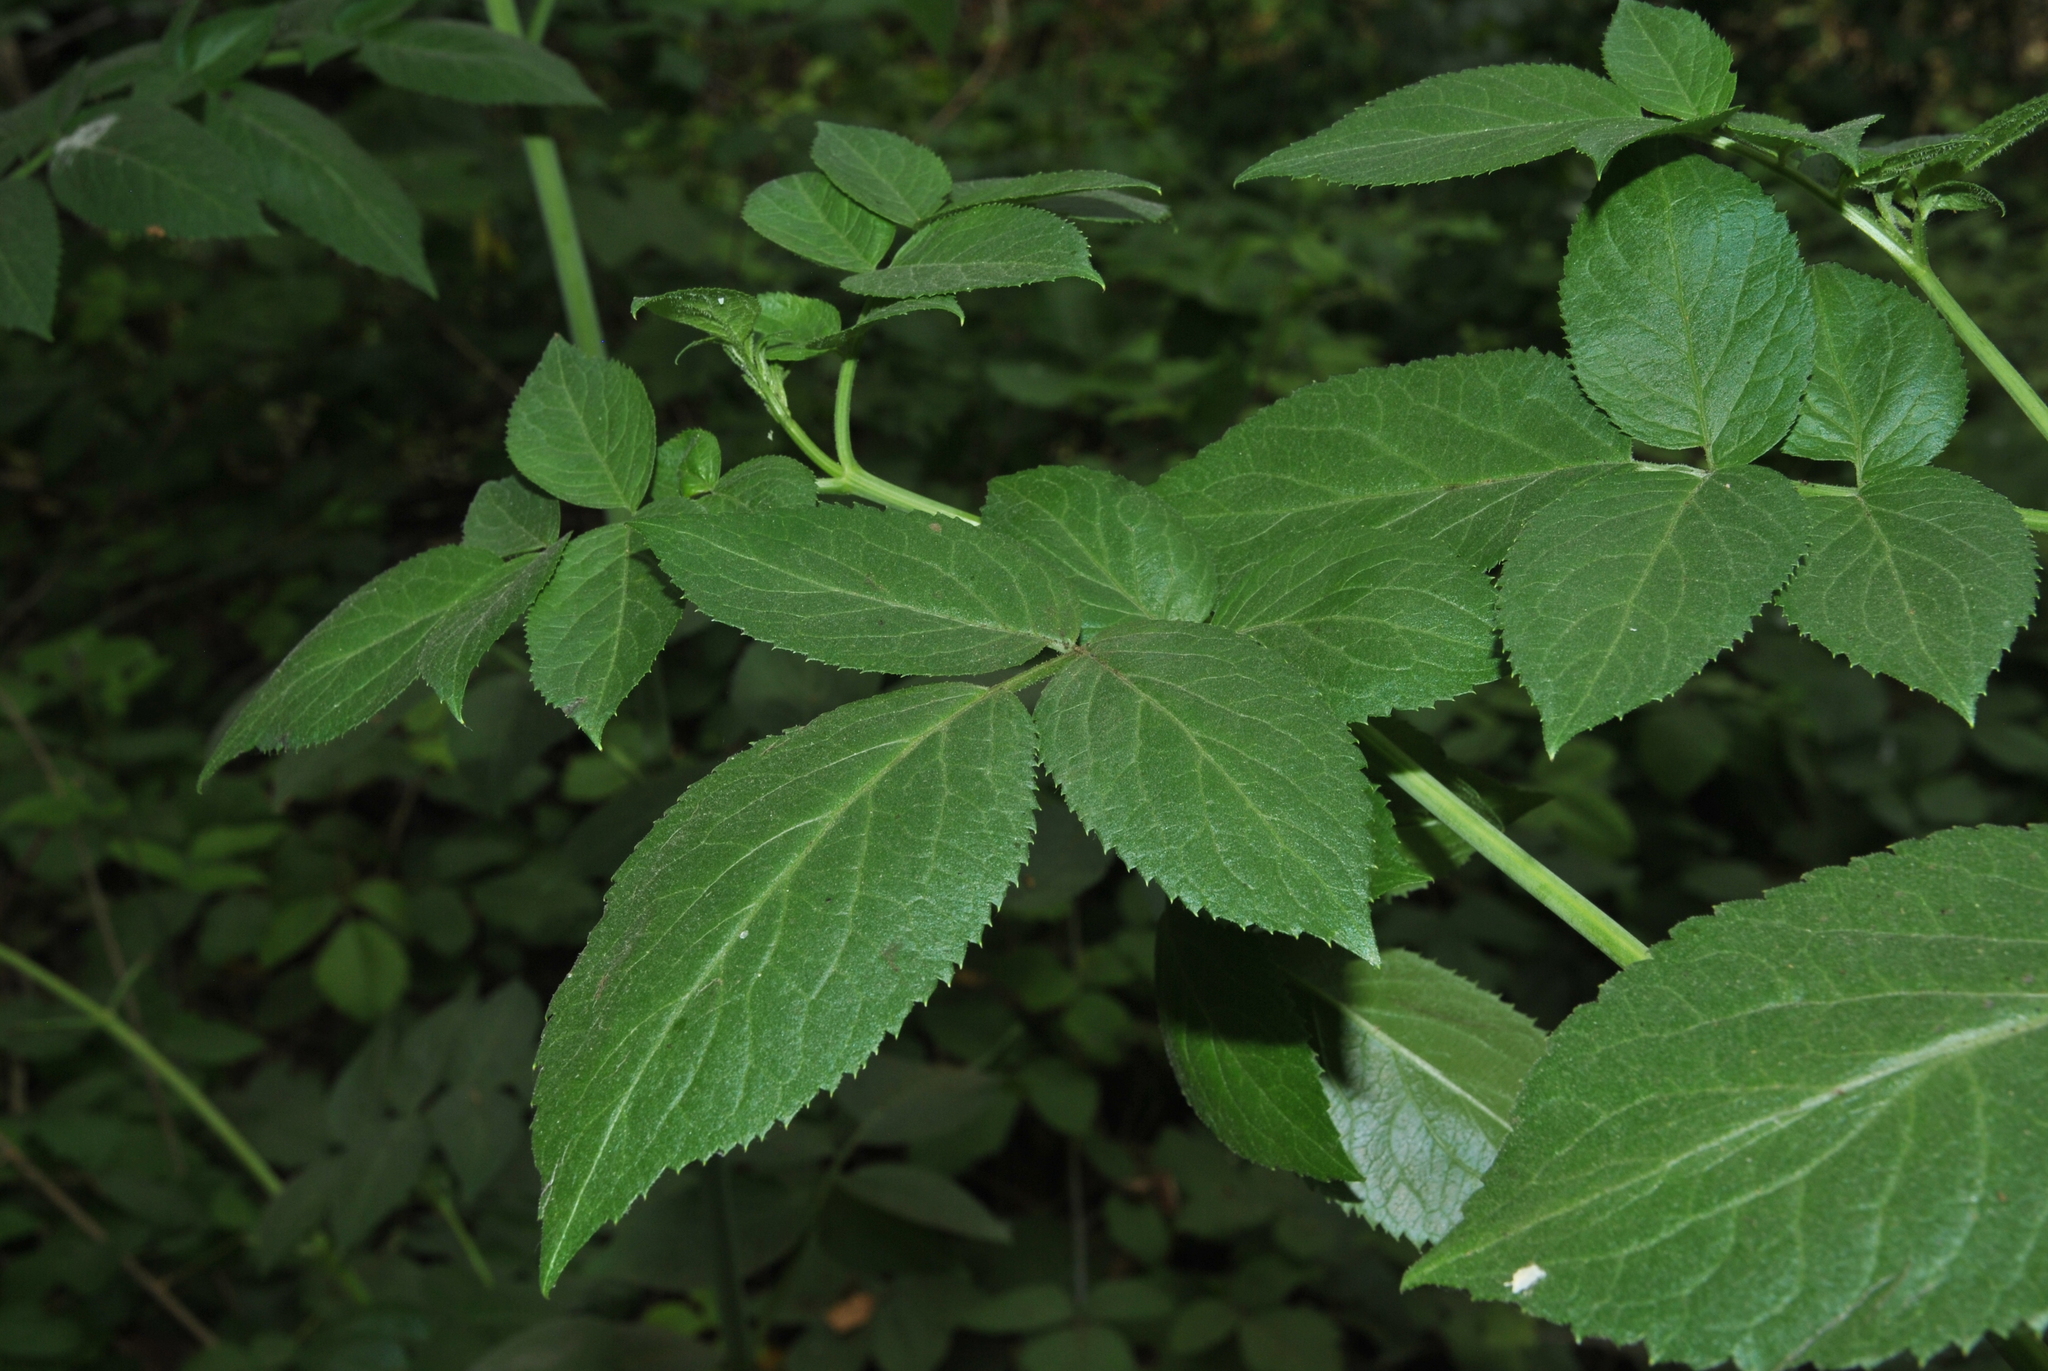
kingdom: Plantae
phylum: Tracheophyta
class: Magnoliopsida
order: Dipsacales
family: Viburnaceae
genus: Sambucus
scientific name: Sambucus cerulea
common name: Blue elder
